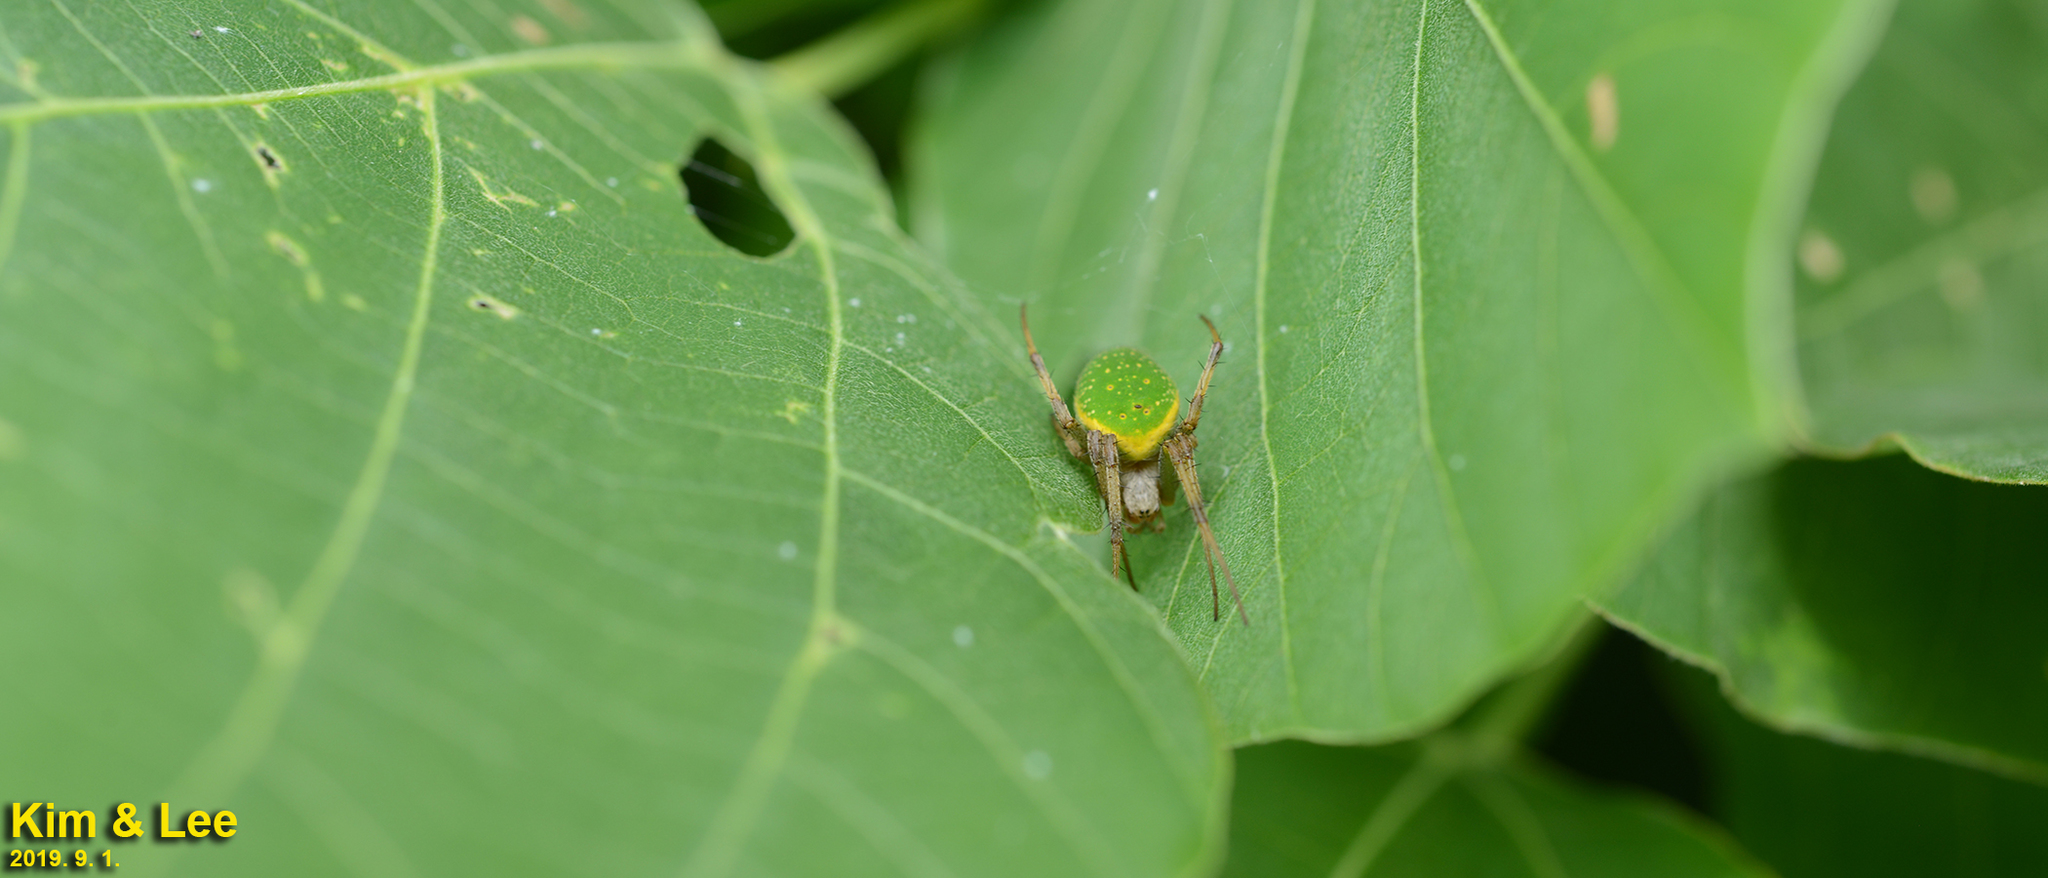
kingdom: Animalia
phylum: Arthropoda
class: Arachnida
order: Araneae
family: Araneidae
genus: Neoscona
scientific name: Neoscona scylloides
